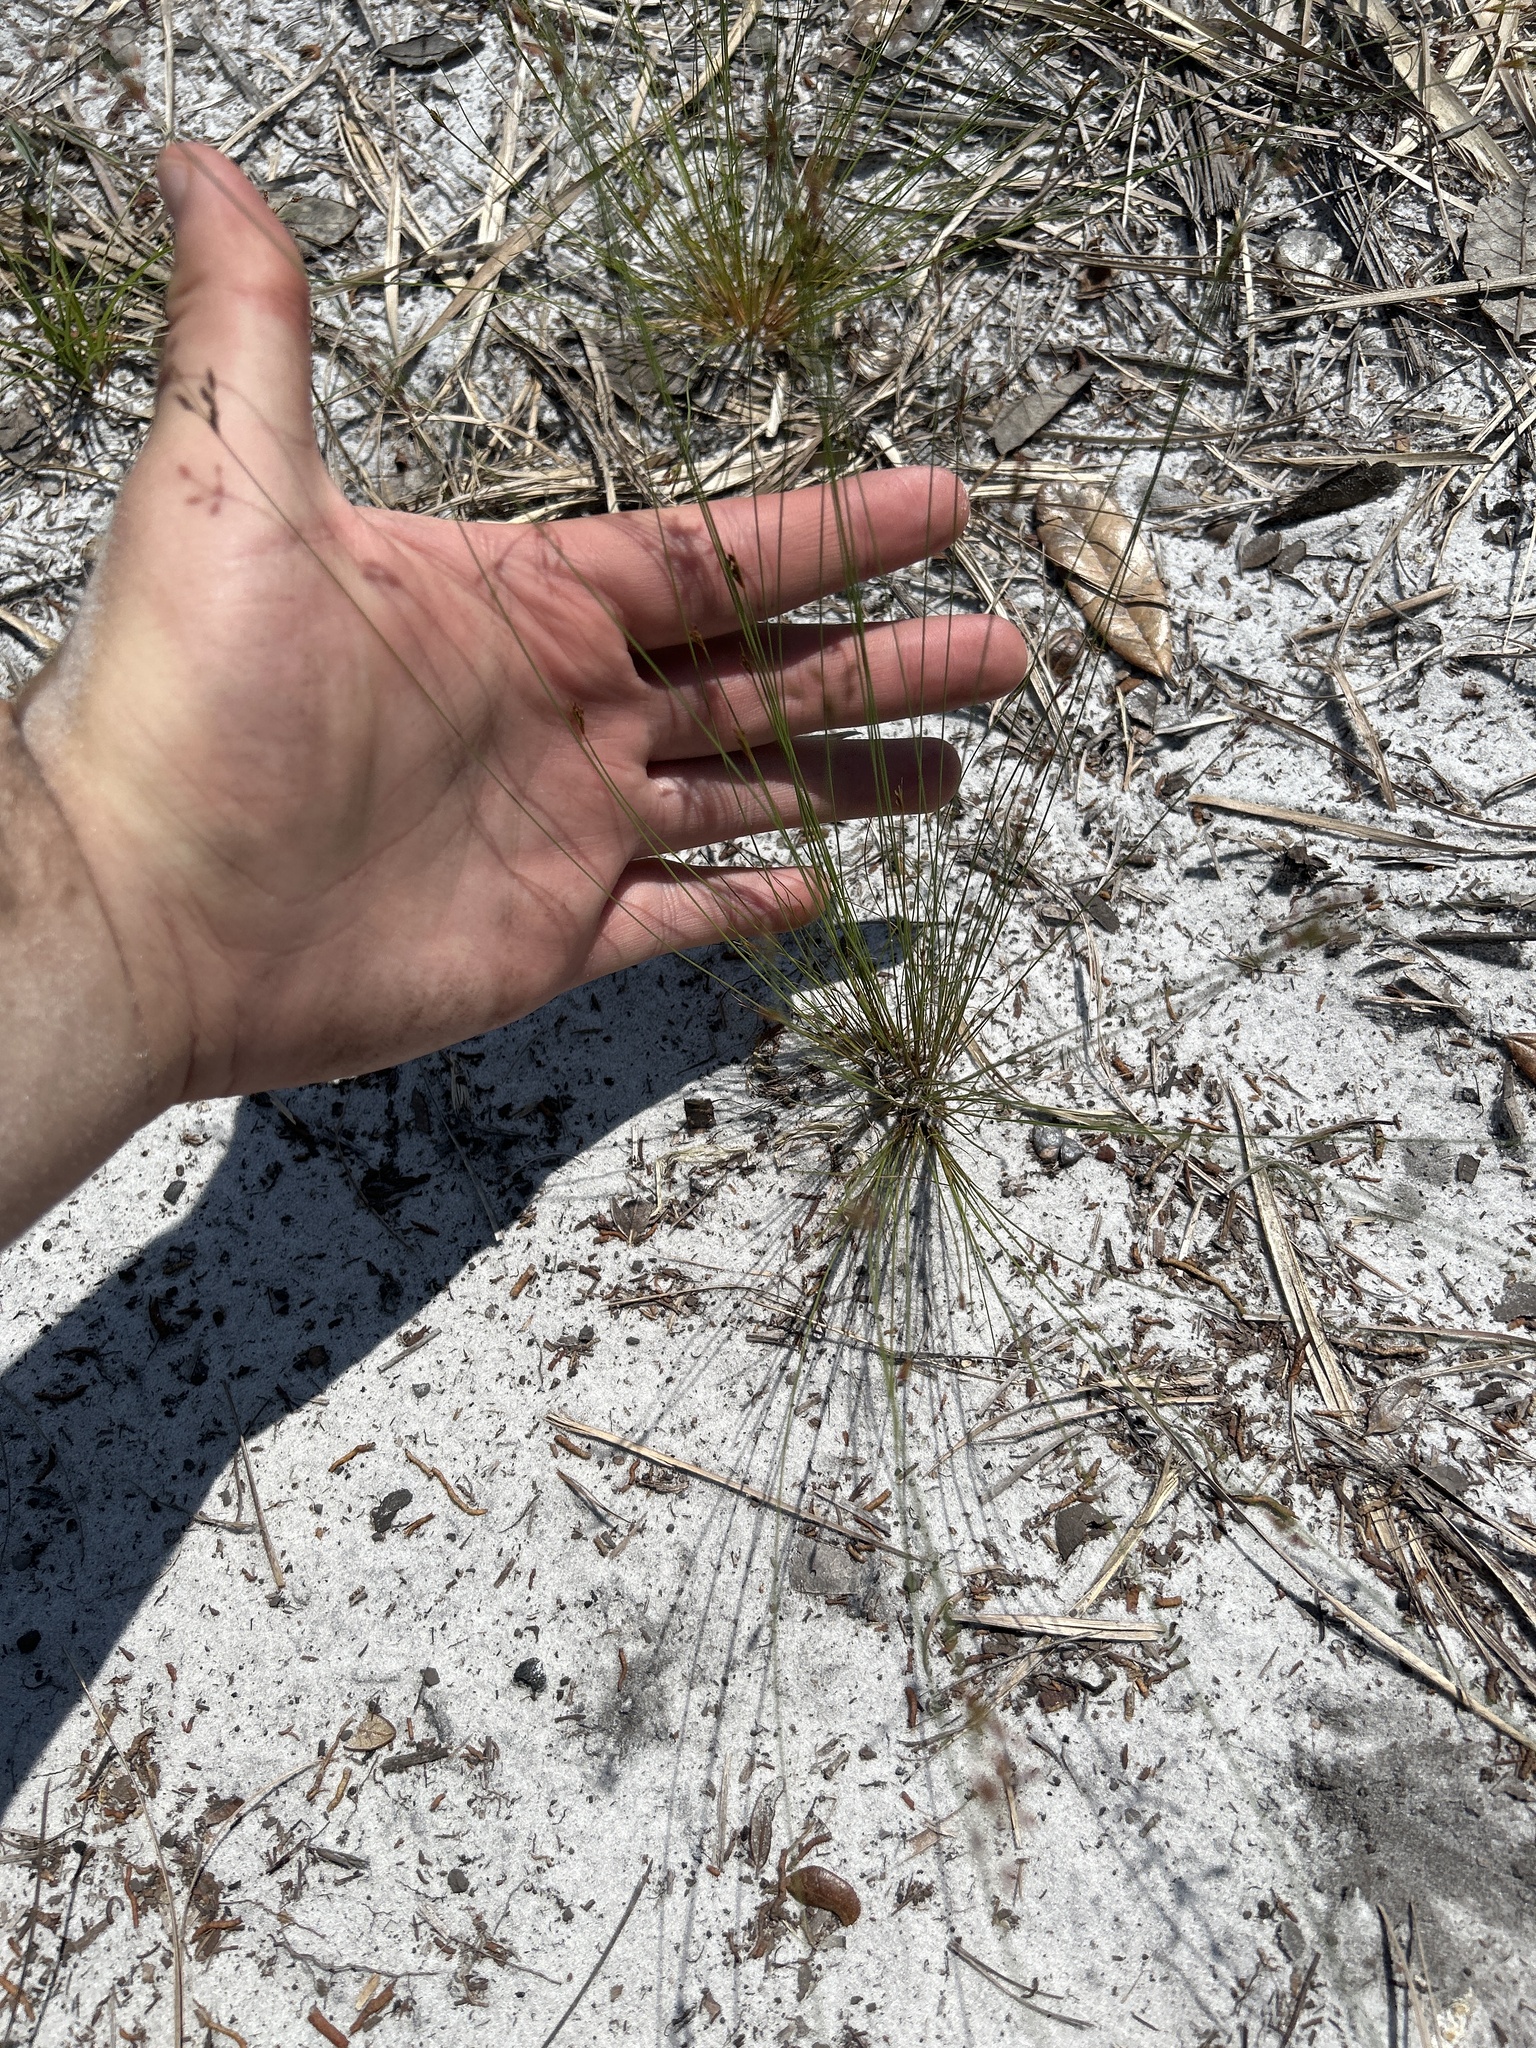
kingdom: Plantae
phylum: Tracheophyta
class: Liliopsida
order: Poales
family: Cyperaceae
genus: Bulbostylis
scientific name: Bulbostylis ciliatifolia
